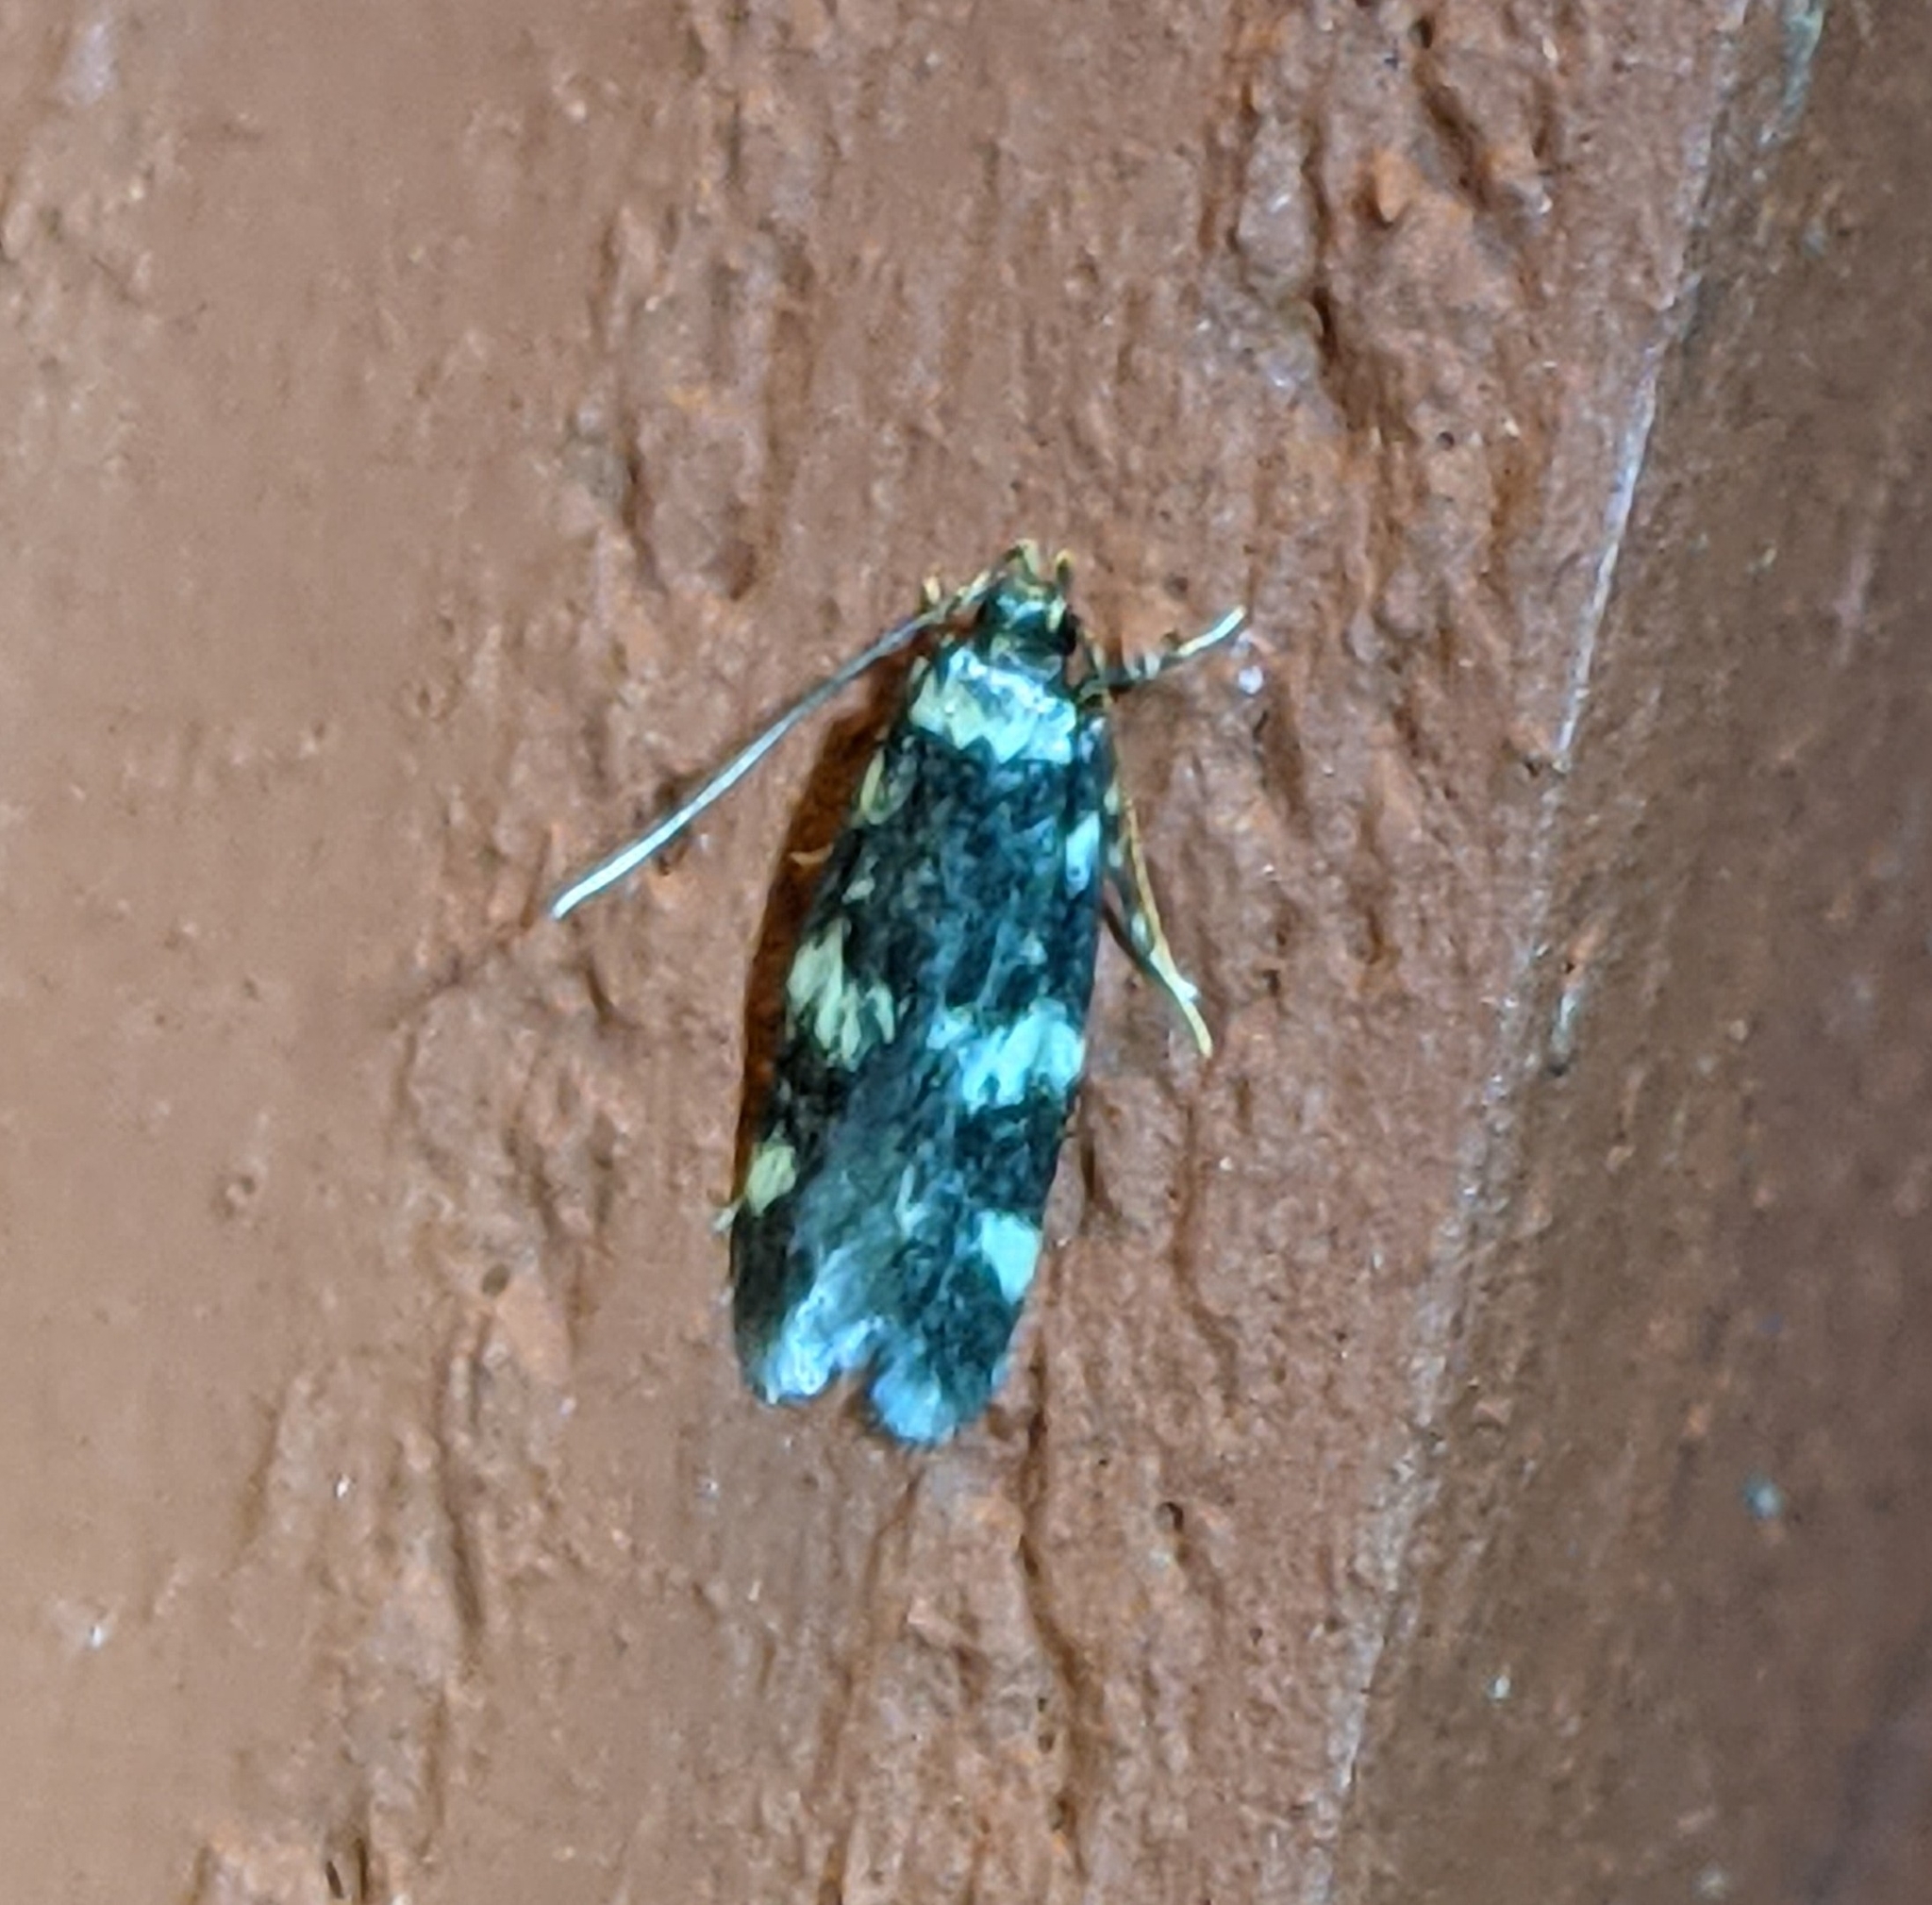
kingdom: Animalia
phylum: Arthropoda
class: Insecta
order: Lepidoptera
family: Autostichidae
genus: Oegoconia
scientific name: Oegoconia quadripuncta
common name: Four-spotted obscure
